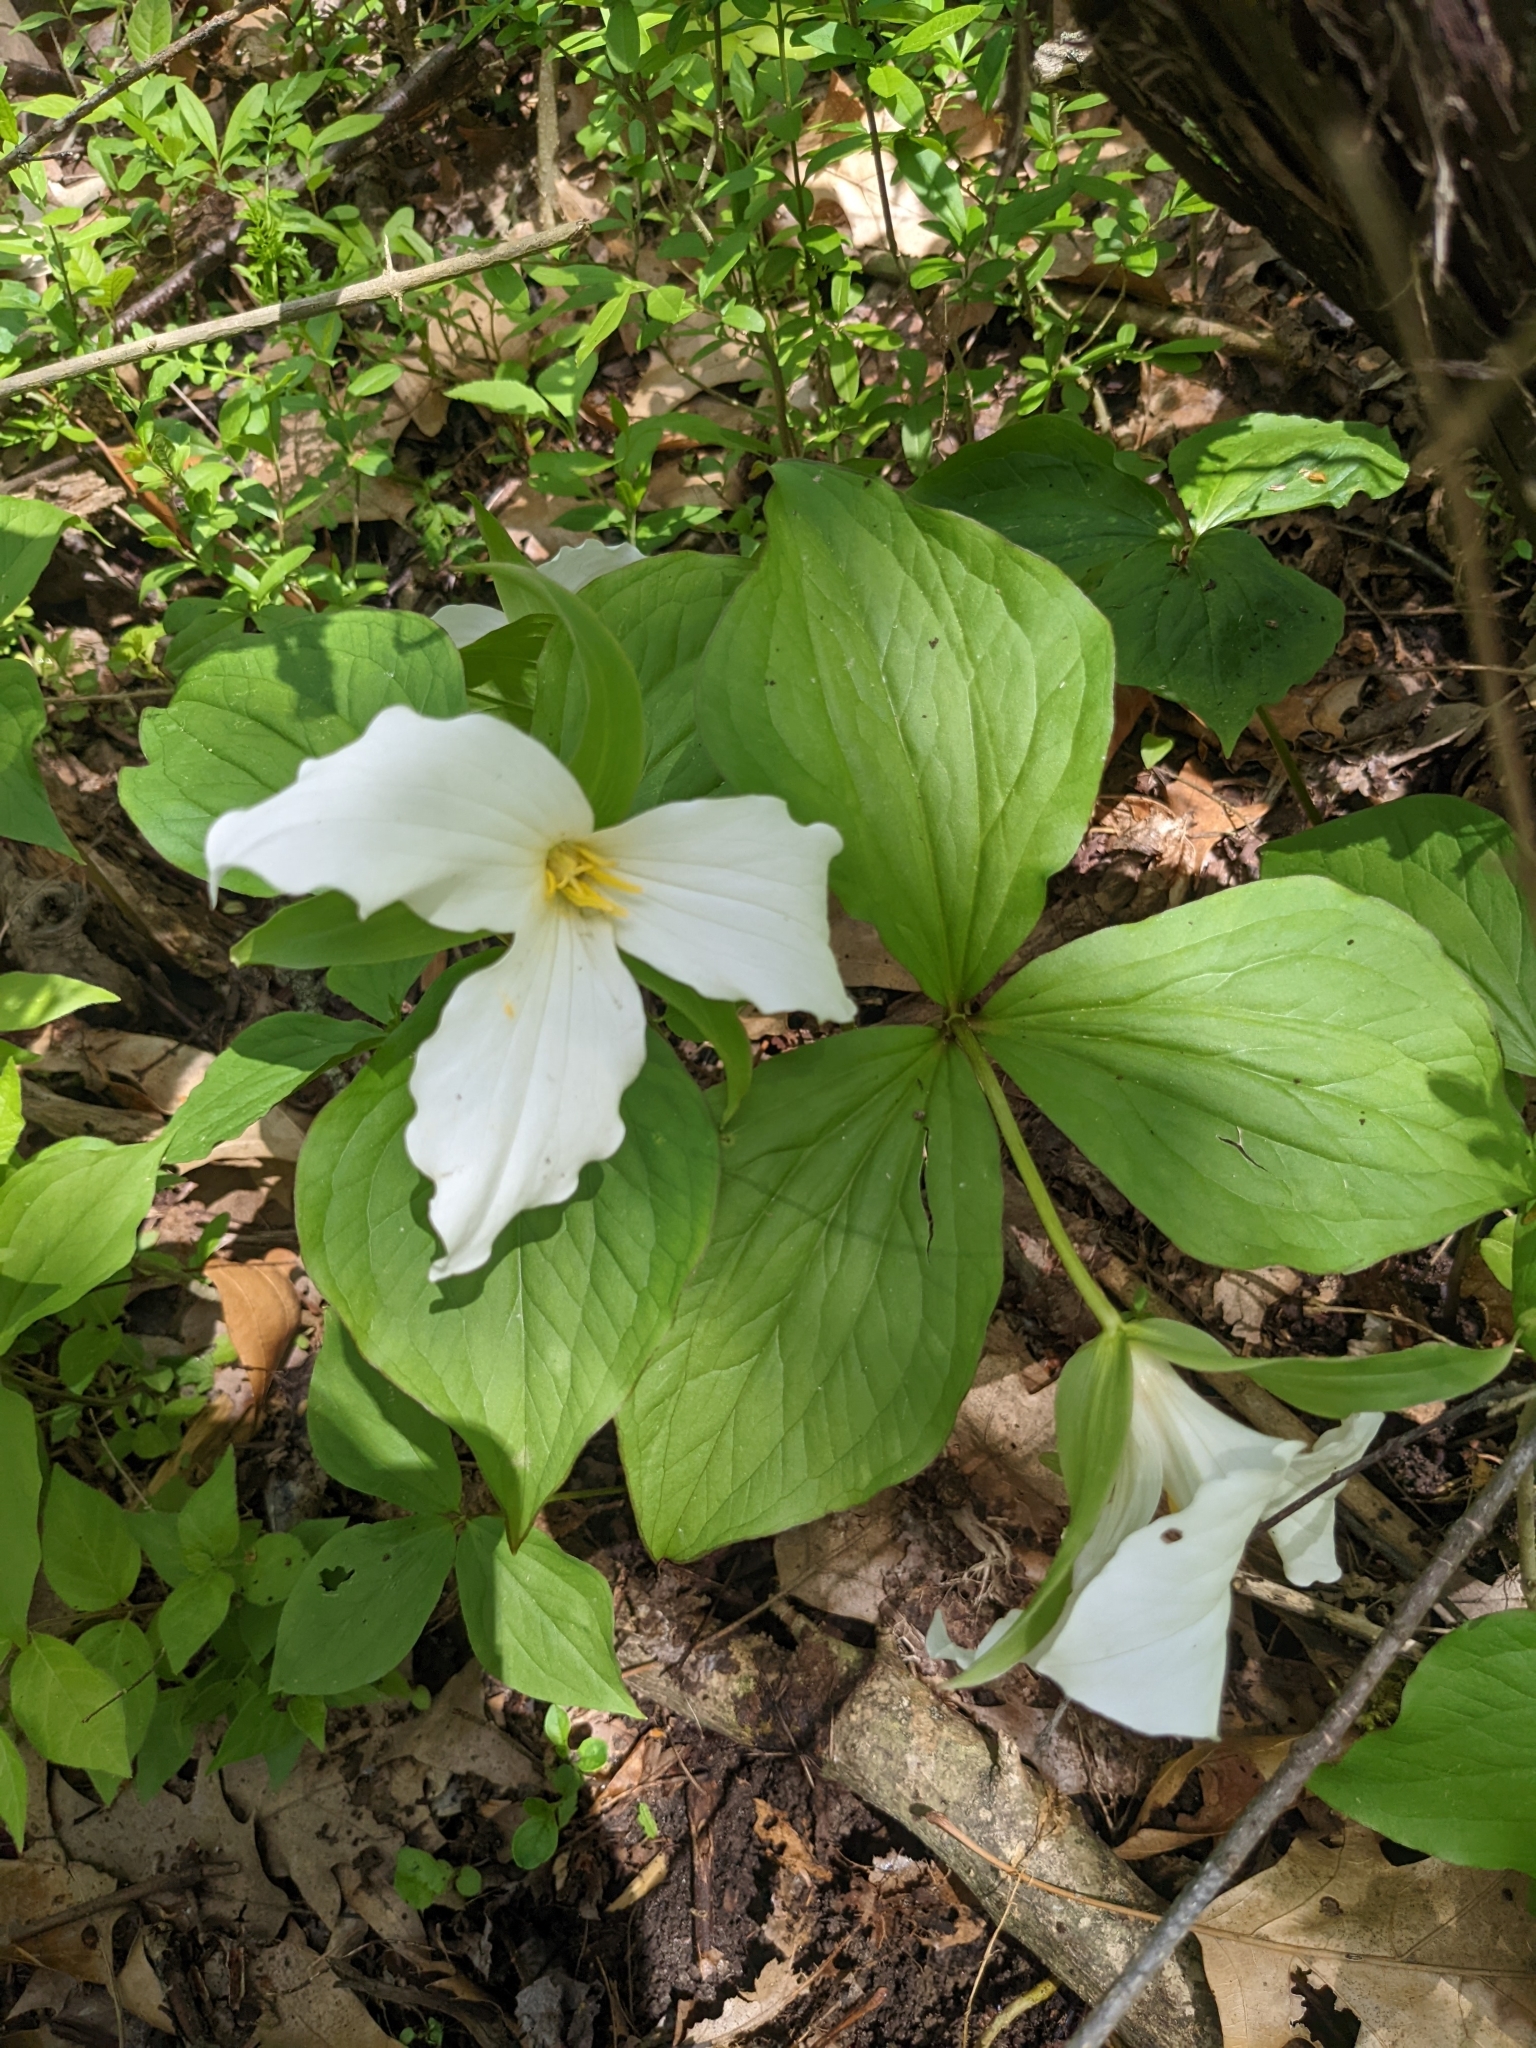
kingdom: Plantae
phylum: Tracheophyta
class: Liliopsida
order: Liliales
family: Melanthiaceae
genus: Trillium
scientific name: Trillium grandiflorum
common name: Great white trillium
